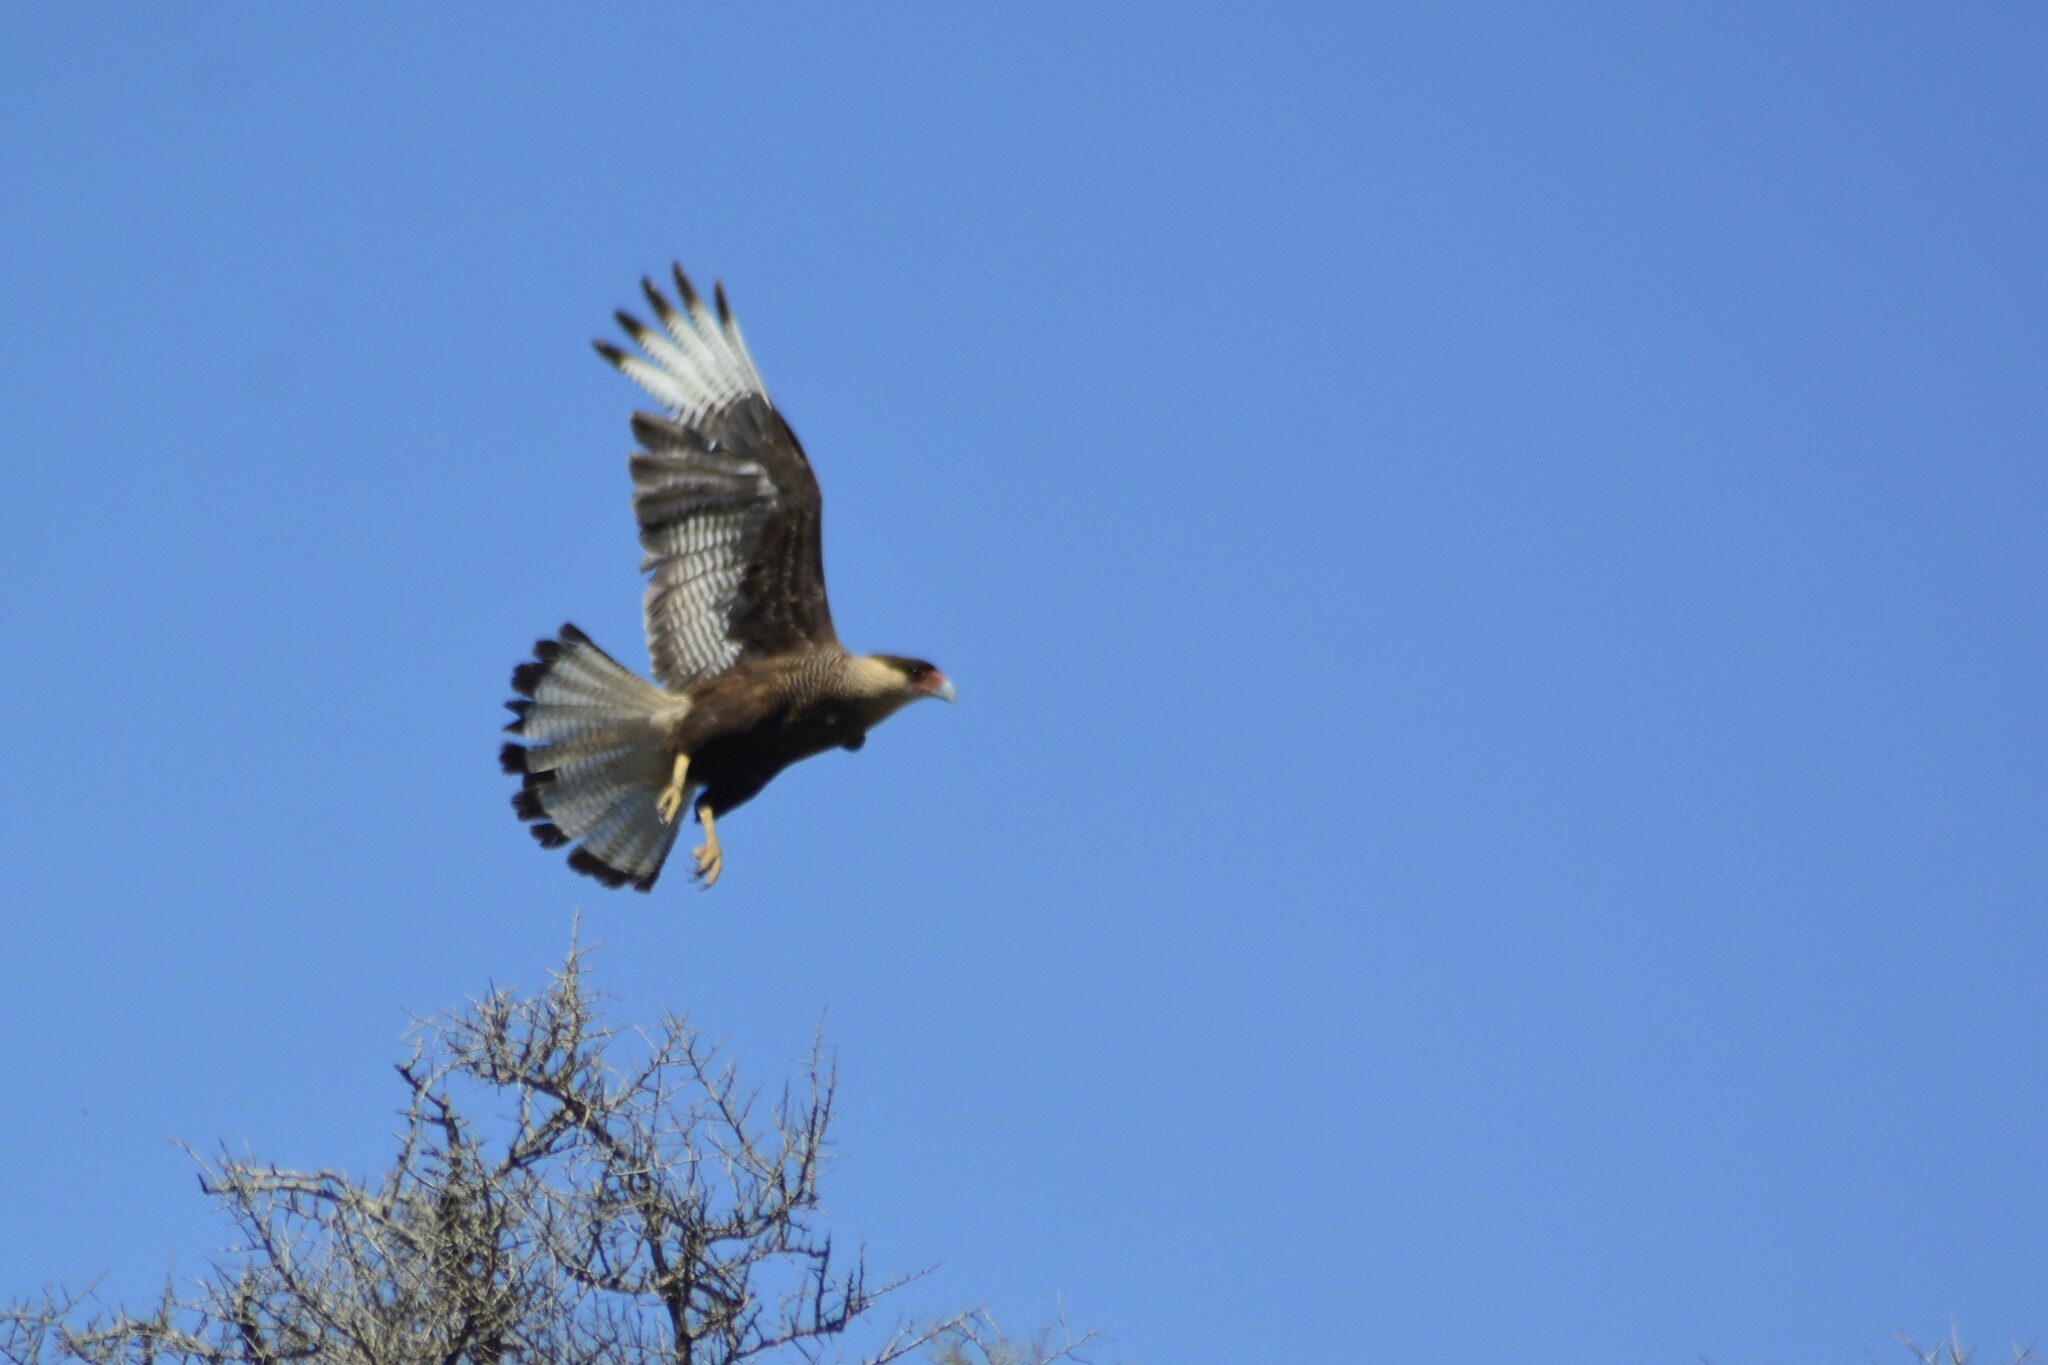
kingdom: Animalia
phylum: Chordata
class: Aves
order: Falconiformes
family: Falconidae
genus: Caracara
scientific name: Caracara plancus
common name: Southern caracara
